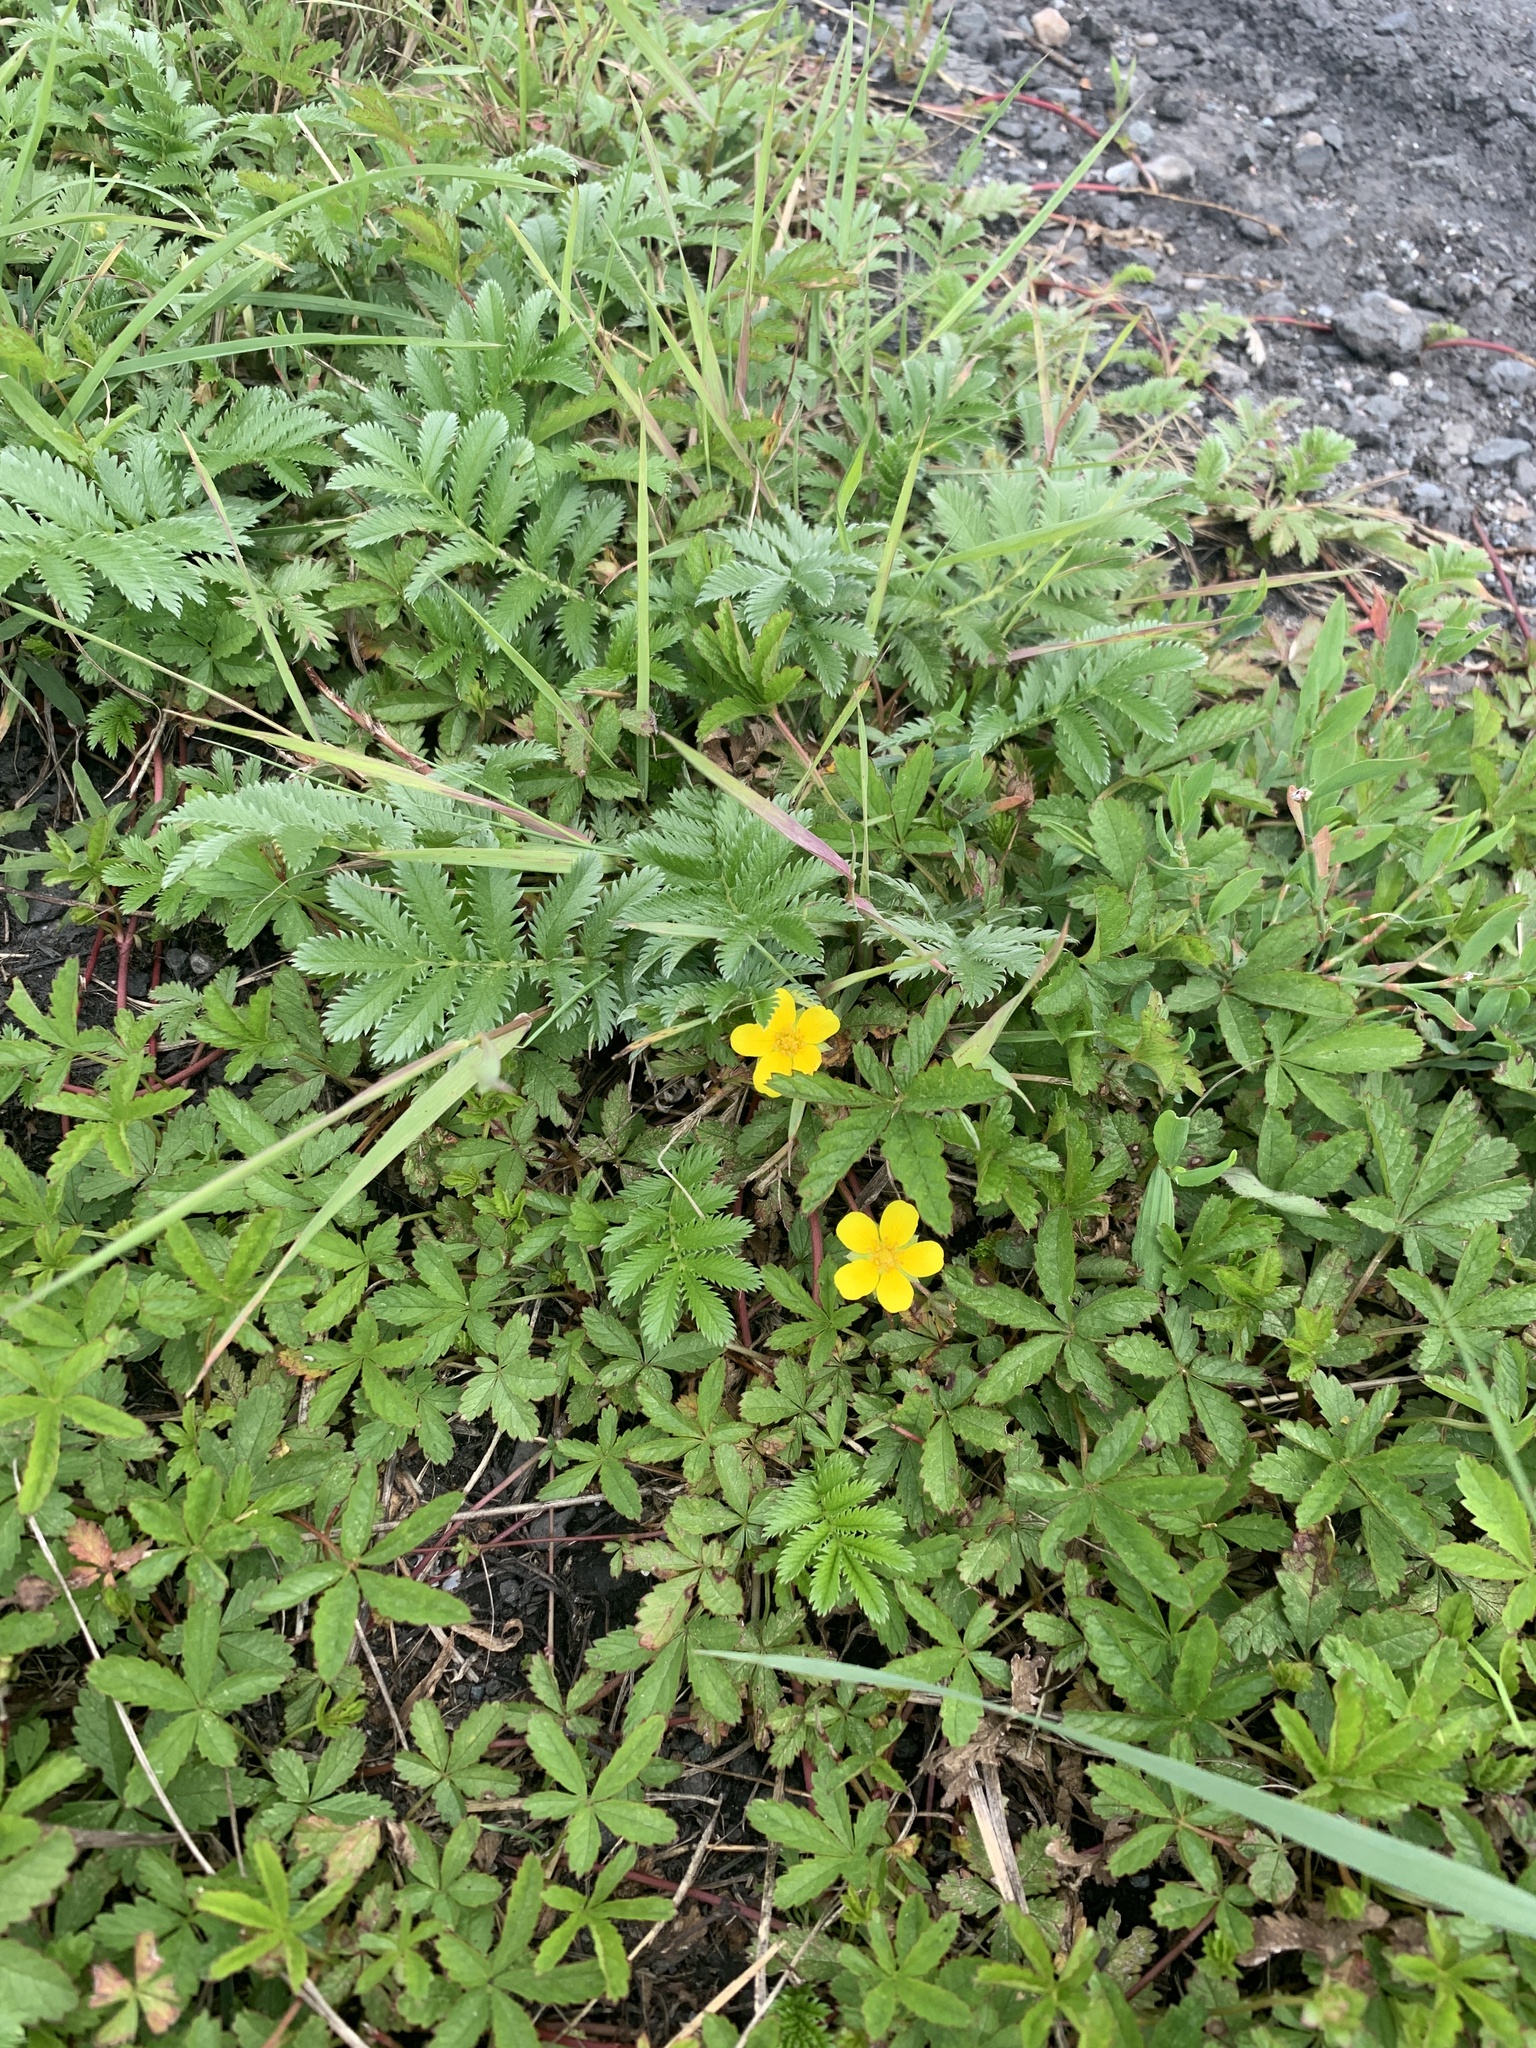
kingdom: Plantae
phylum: Tracheophyta
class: Magnoliopsida
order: Rosales
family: Rosaceae
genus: Argentina
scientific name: Argentina anserina
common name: Common silverweed
